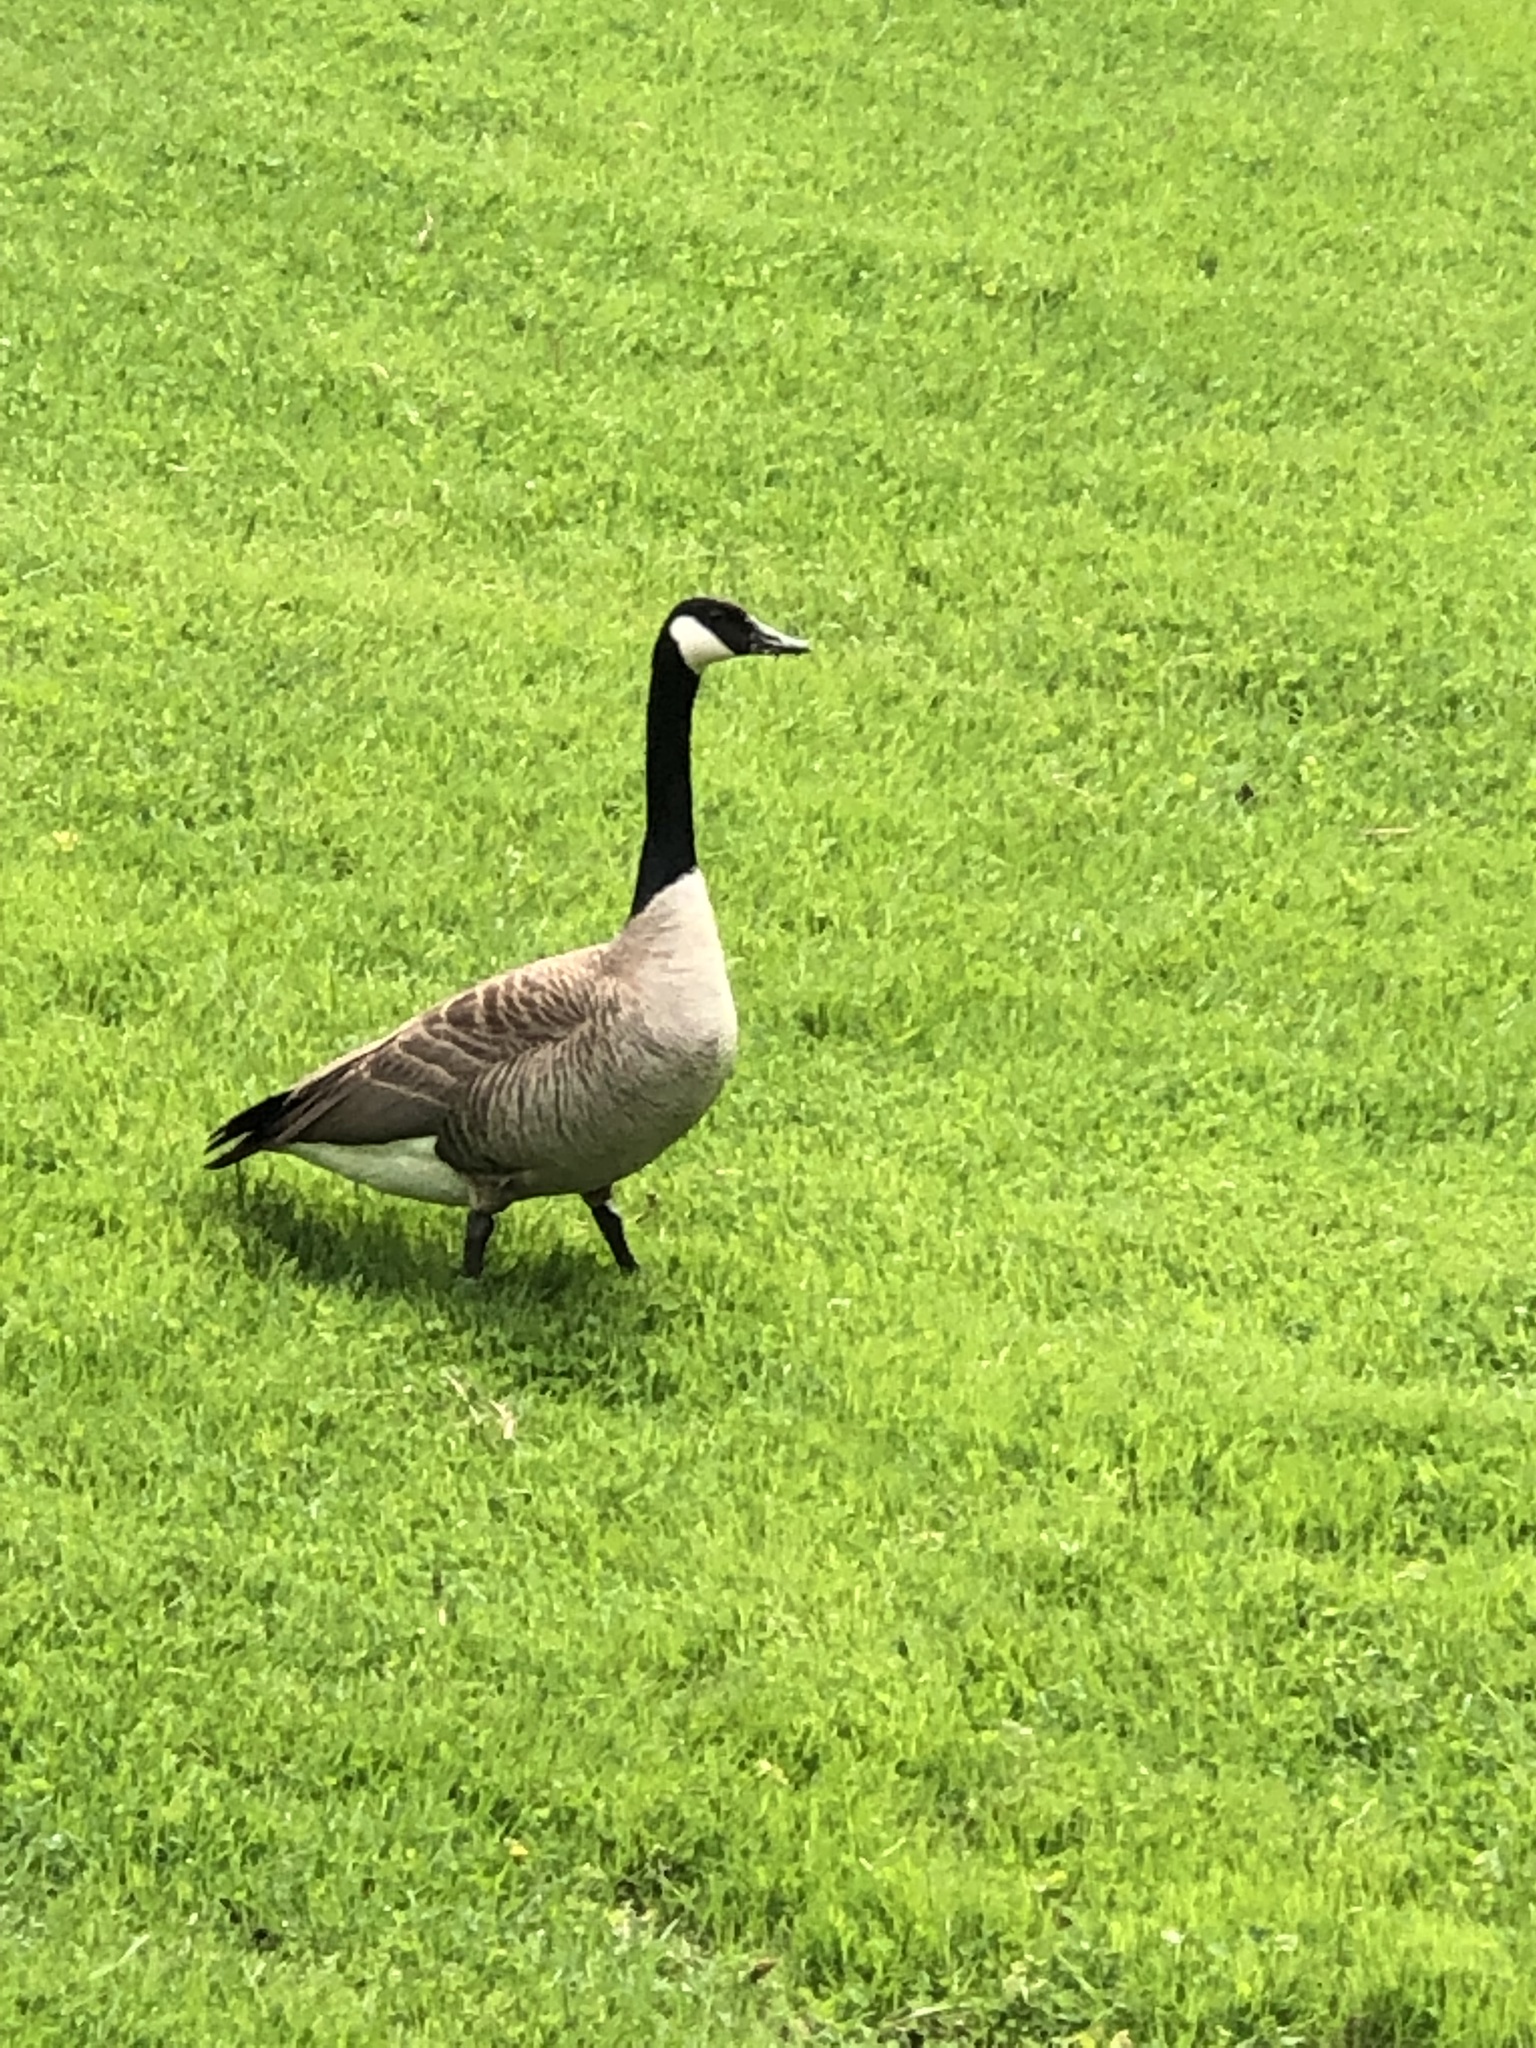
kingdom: Animalia
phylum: Chordata
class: Aves
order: Anseriformes
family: Anatidae
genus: Branta
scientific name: Branta canadensis
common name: Canada goose
